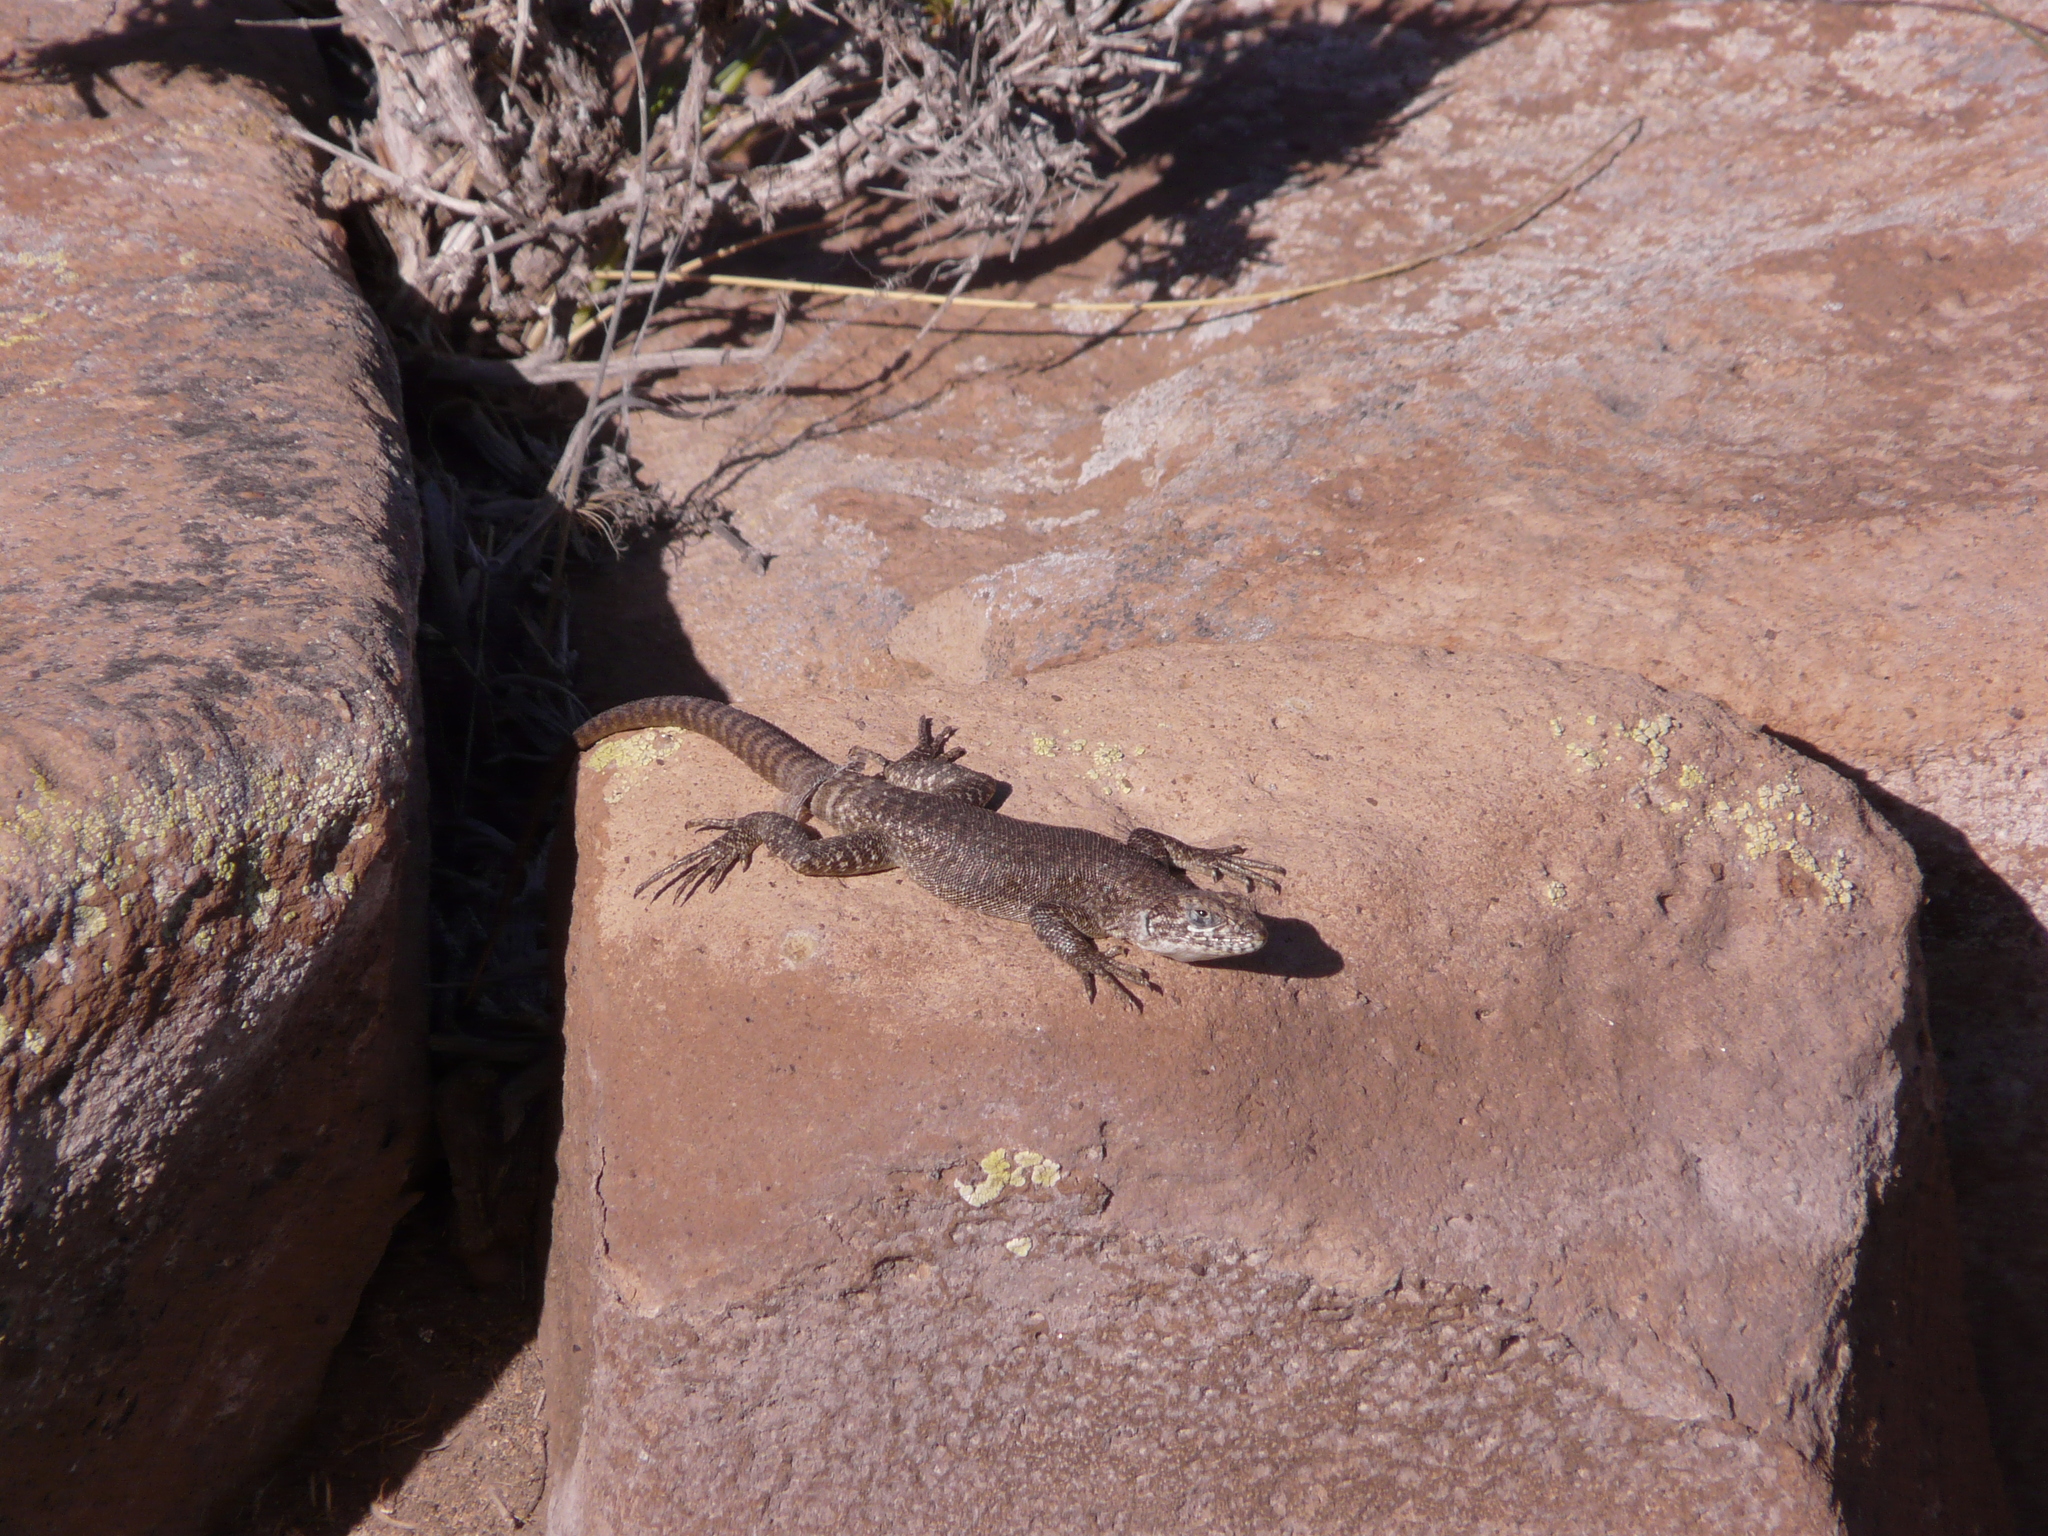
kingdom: Animalia
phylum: Chordata
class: Squamata
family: Liolaemidae
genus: Liolaemus
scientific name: Liolaemus austromendocinus
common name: Austromendocino tree iguana
